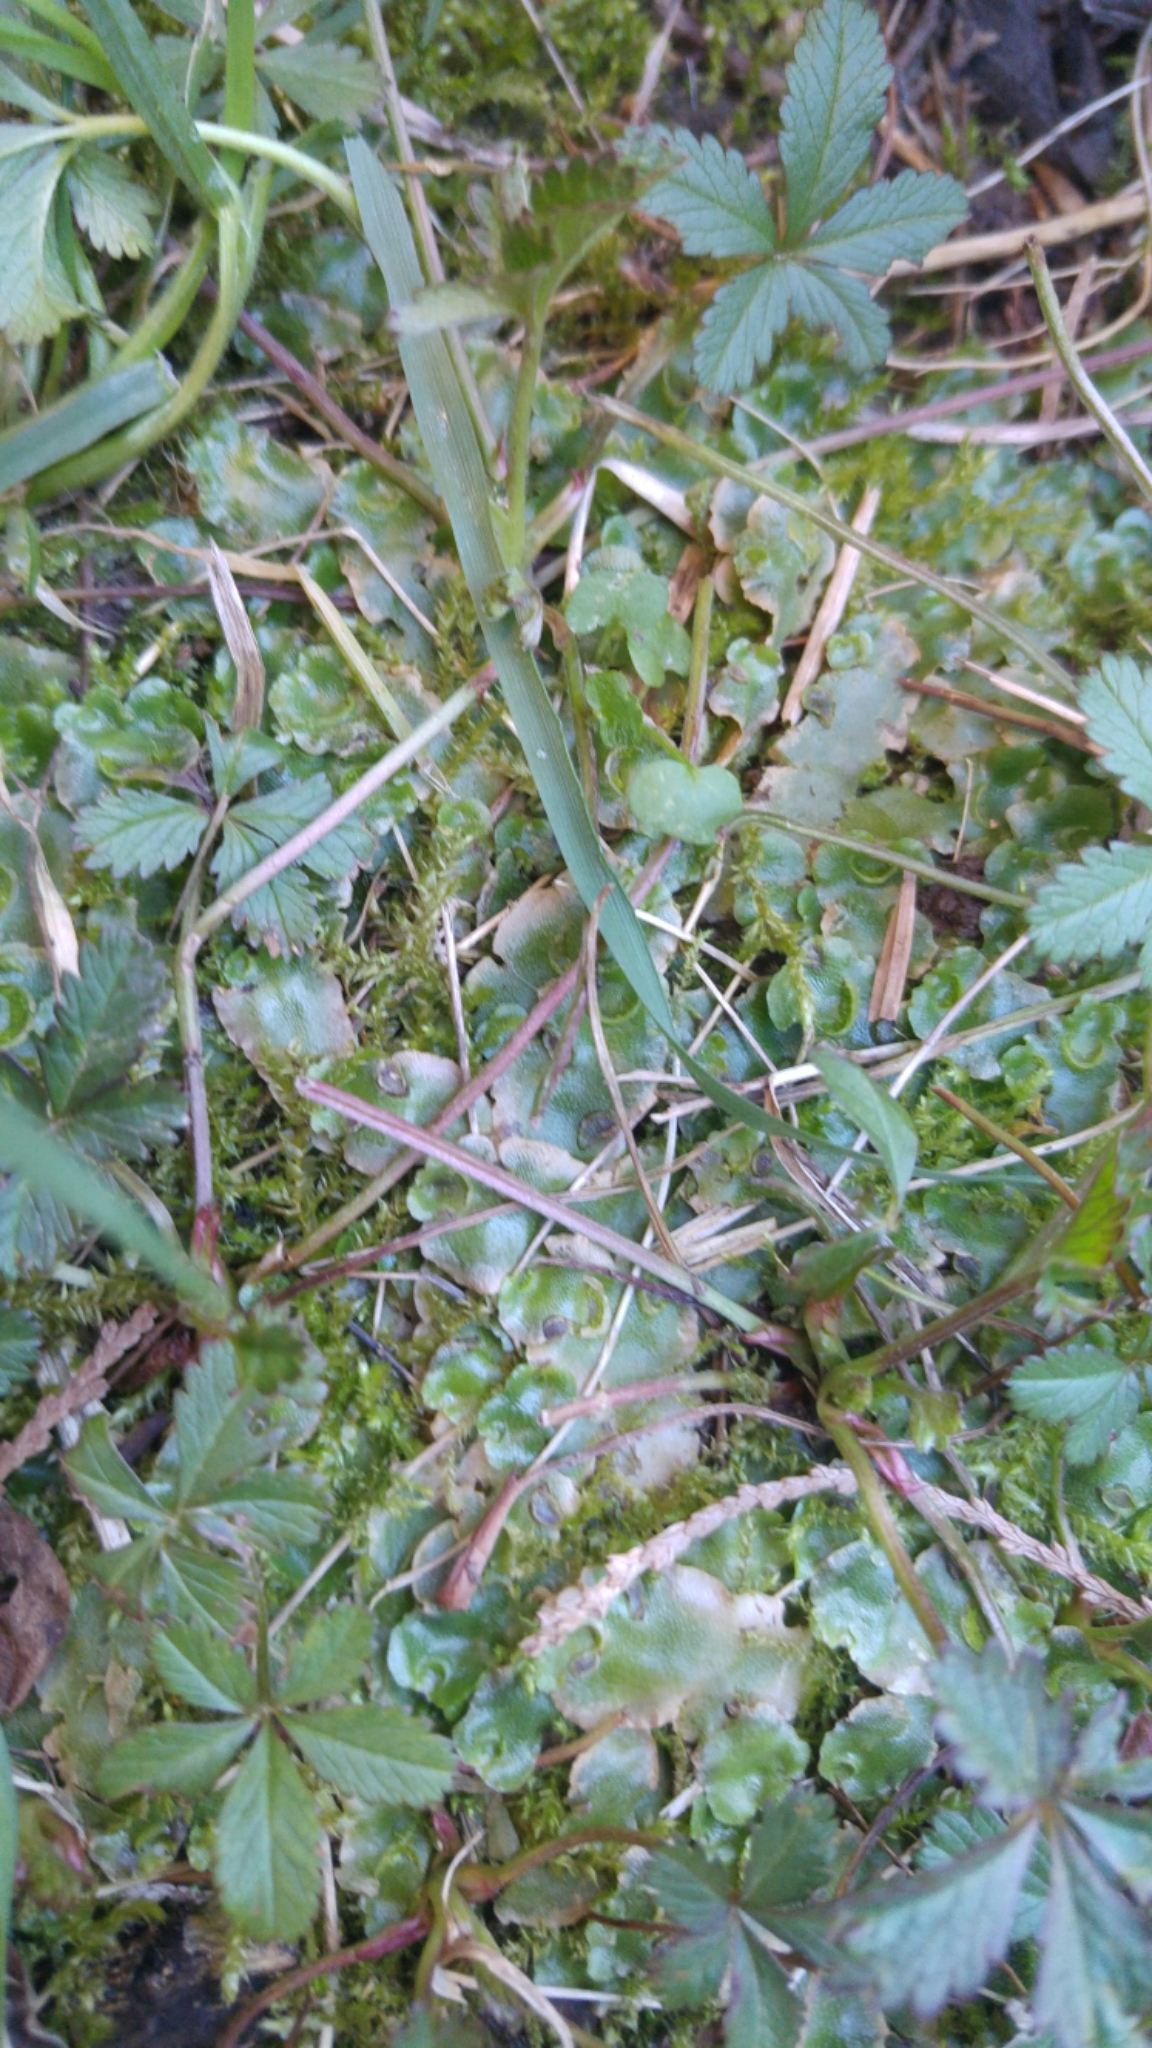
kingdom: Plantae
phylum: Marchantiophyta
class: Marchantiopsida
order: Lunulariales
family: Lunulariaceae
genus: Lunularia
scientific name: Lunularia cruciata
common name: Crescent-cup liverwort
